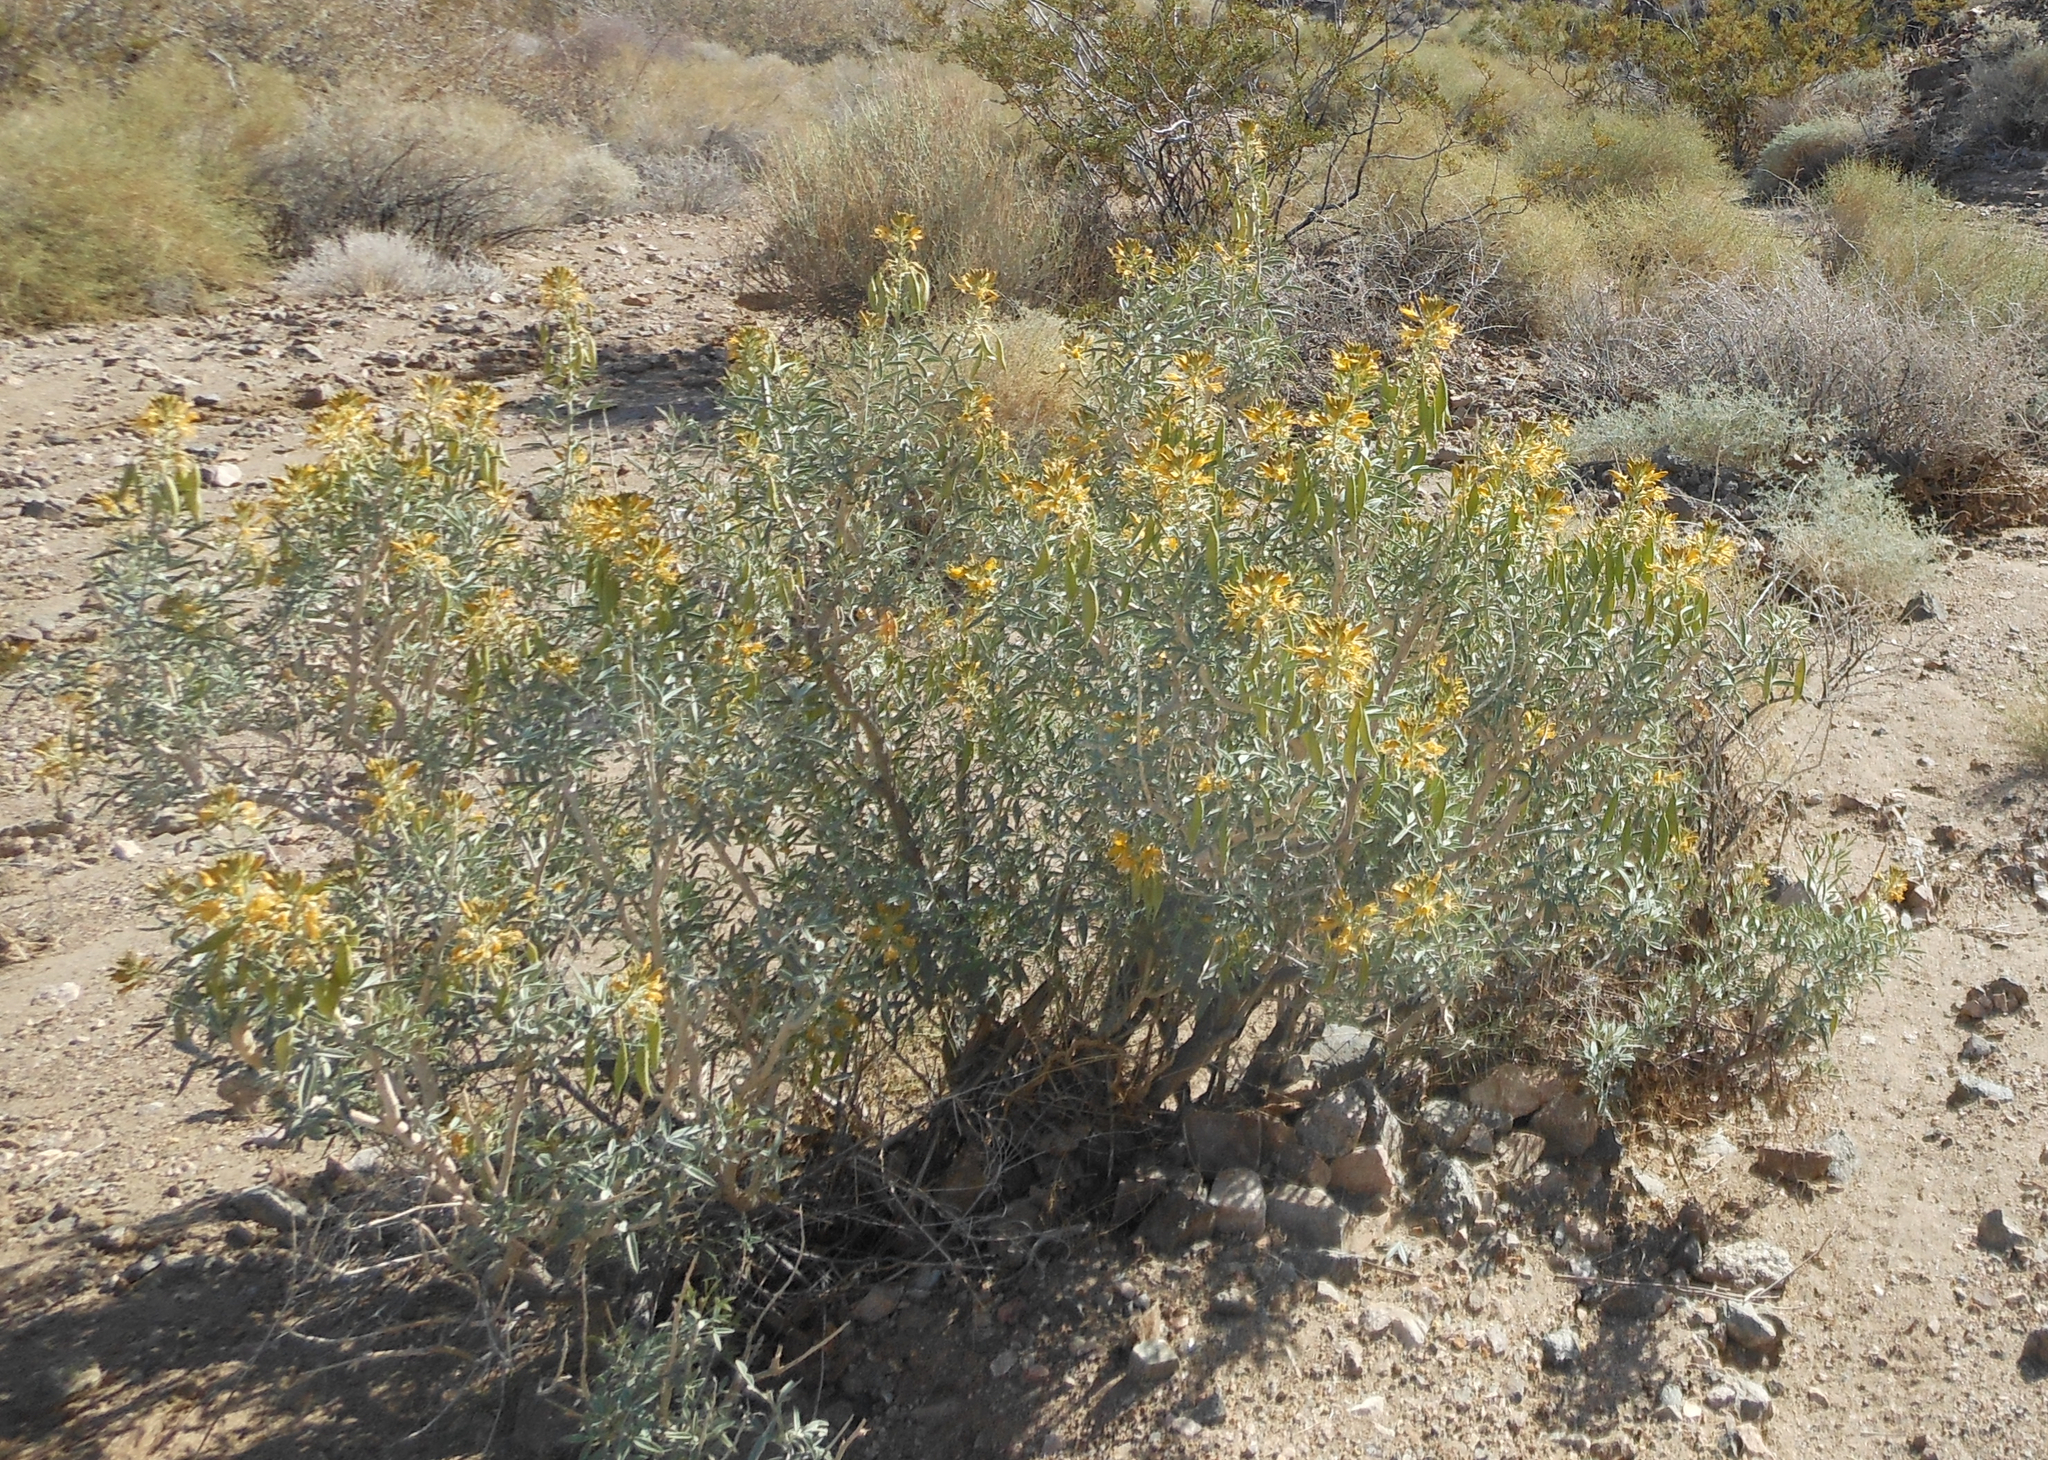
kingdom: Plantae
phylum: Tracheophyta
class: Magnoliopsida
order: Brassicales
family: Cleomaceae
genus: Cleomella
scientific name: Cleomella arborea
